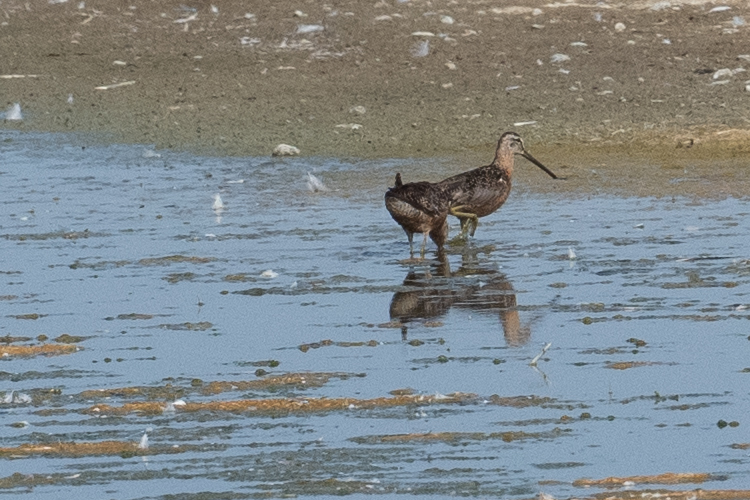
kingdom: Animalia
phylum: Chordata
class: Aves
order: Charadriiformes
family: Scolopacidae
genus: Limnodromus
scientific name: Limnodromus scolopaceus
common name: Long-billed dowitcher
